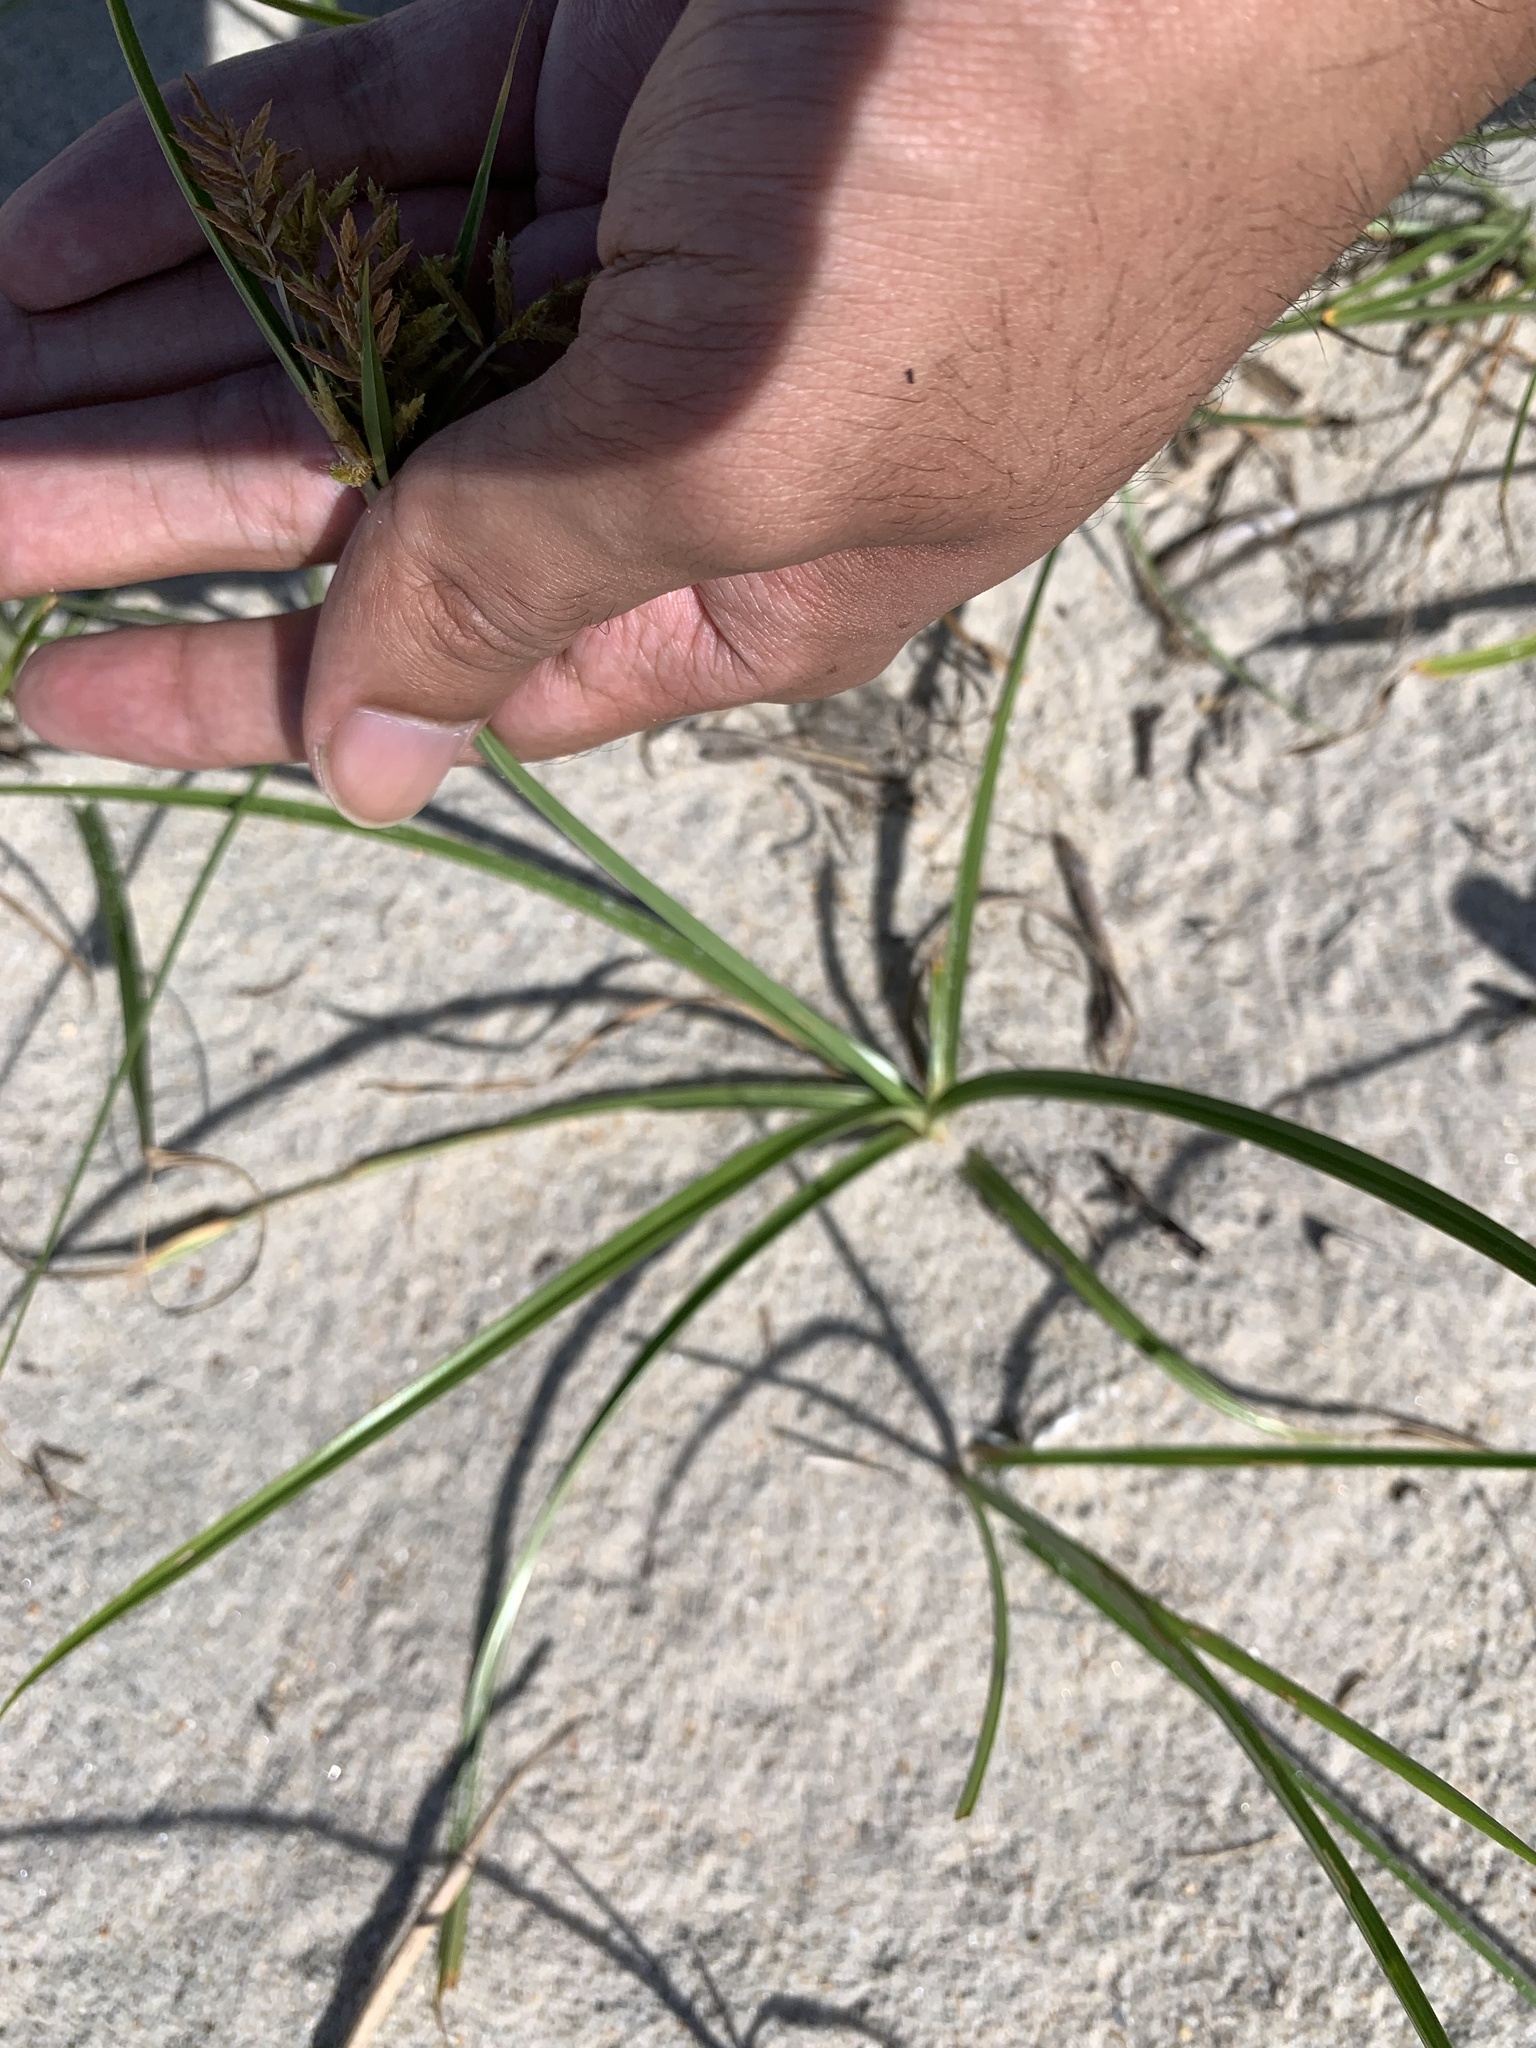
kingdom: Plantae
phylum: Tracheophyta
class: Liliopsida
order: Poales
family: Cyperaceae
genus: Cyperus
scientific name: Cyperus esculentus
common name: Yellow nutsedge
